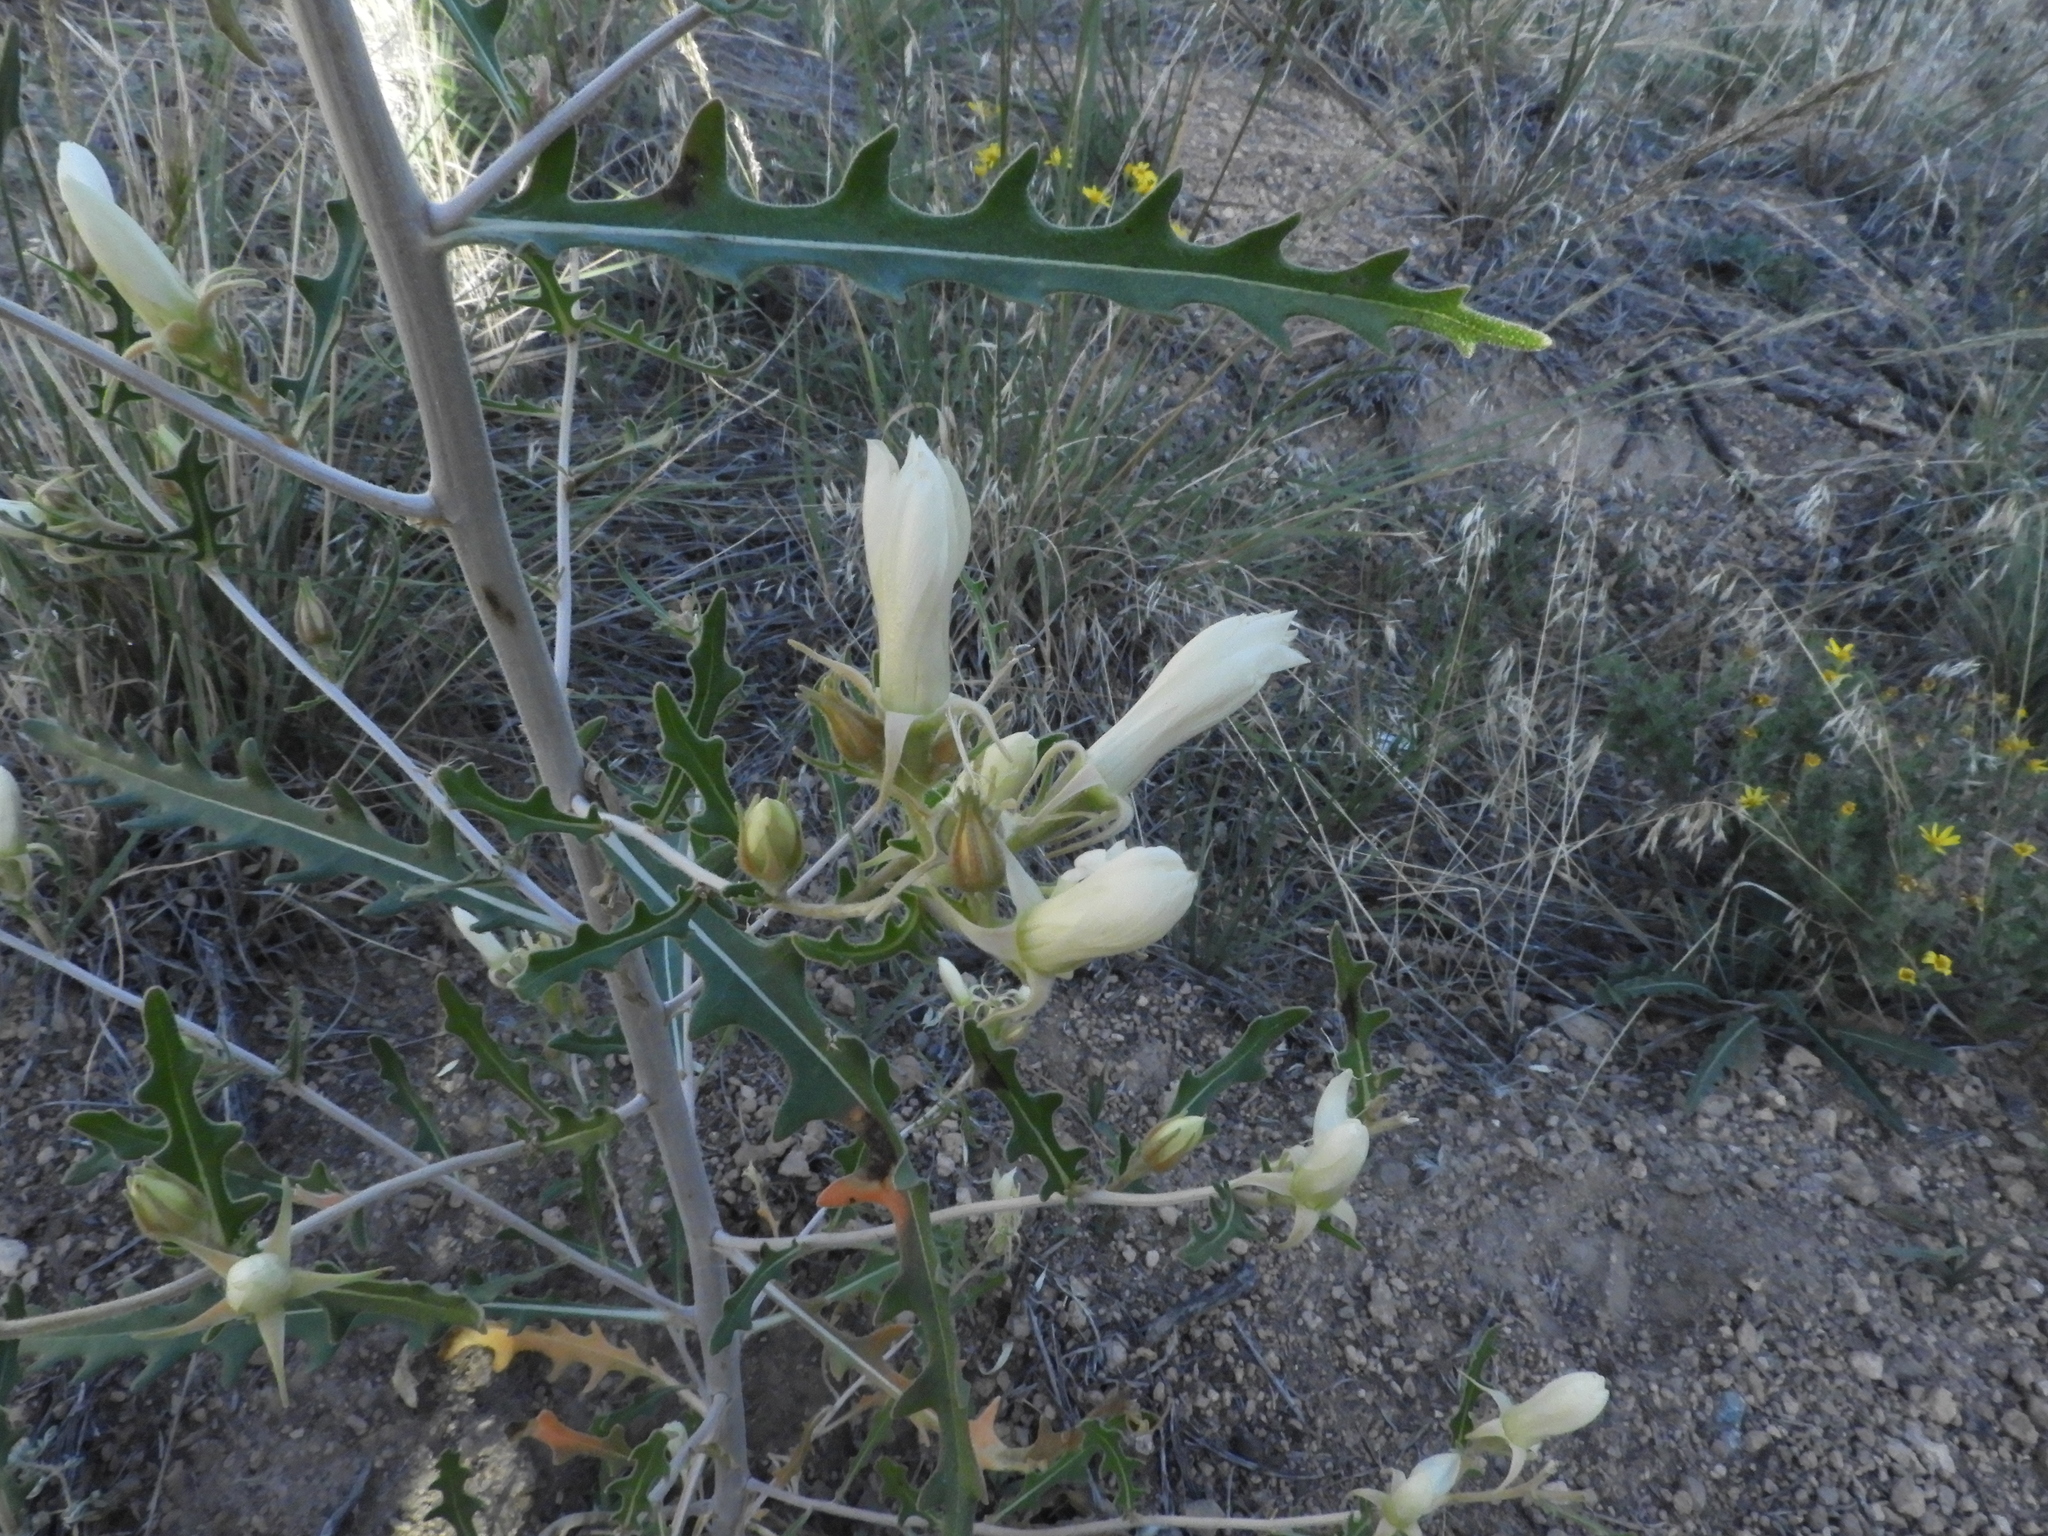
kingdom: Plantae
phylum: Tracheophyta
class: Magnoliopsida
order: Cornales
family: Loasaceae
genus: Mentzelia
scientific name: Mentzelia multiflora
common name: Adonis blazingstar
